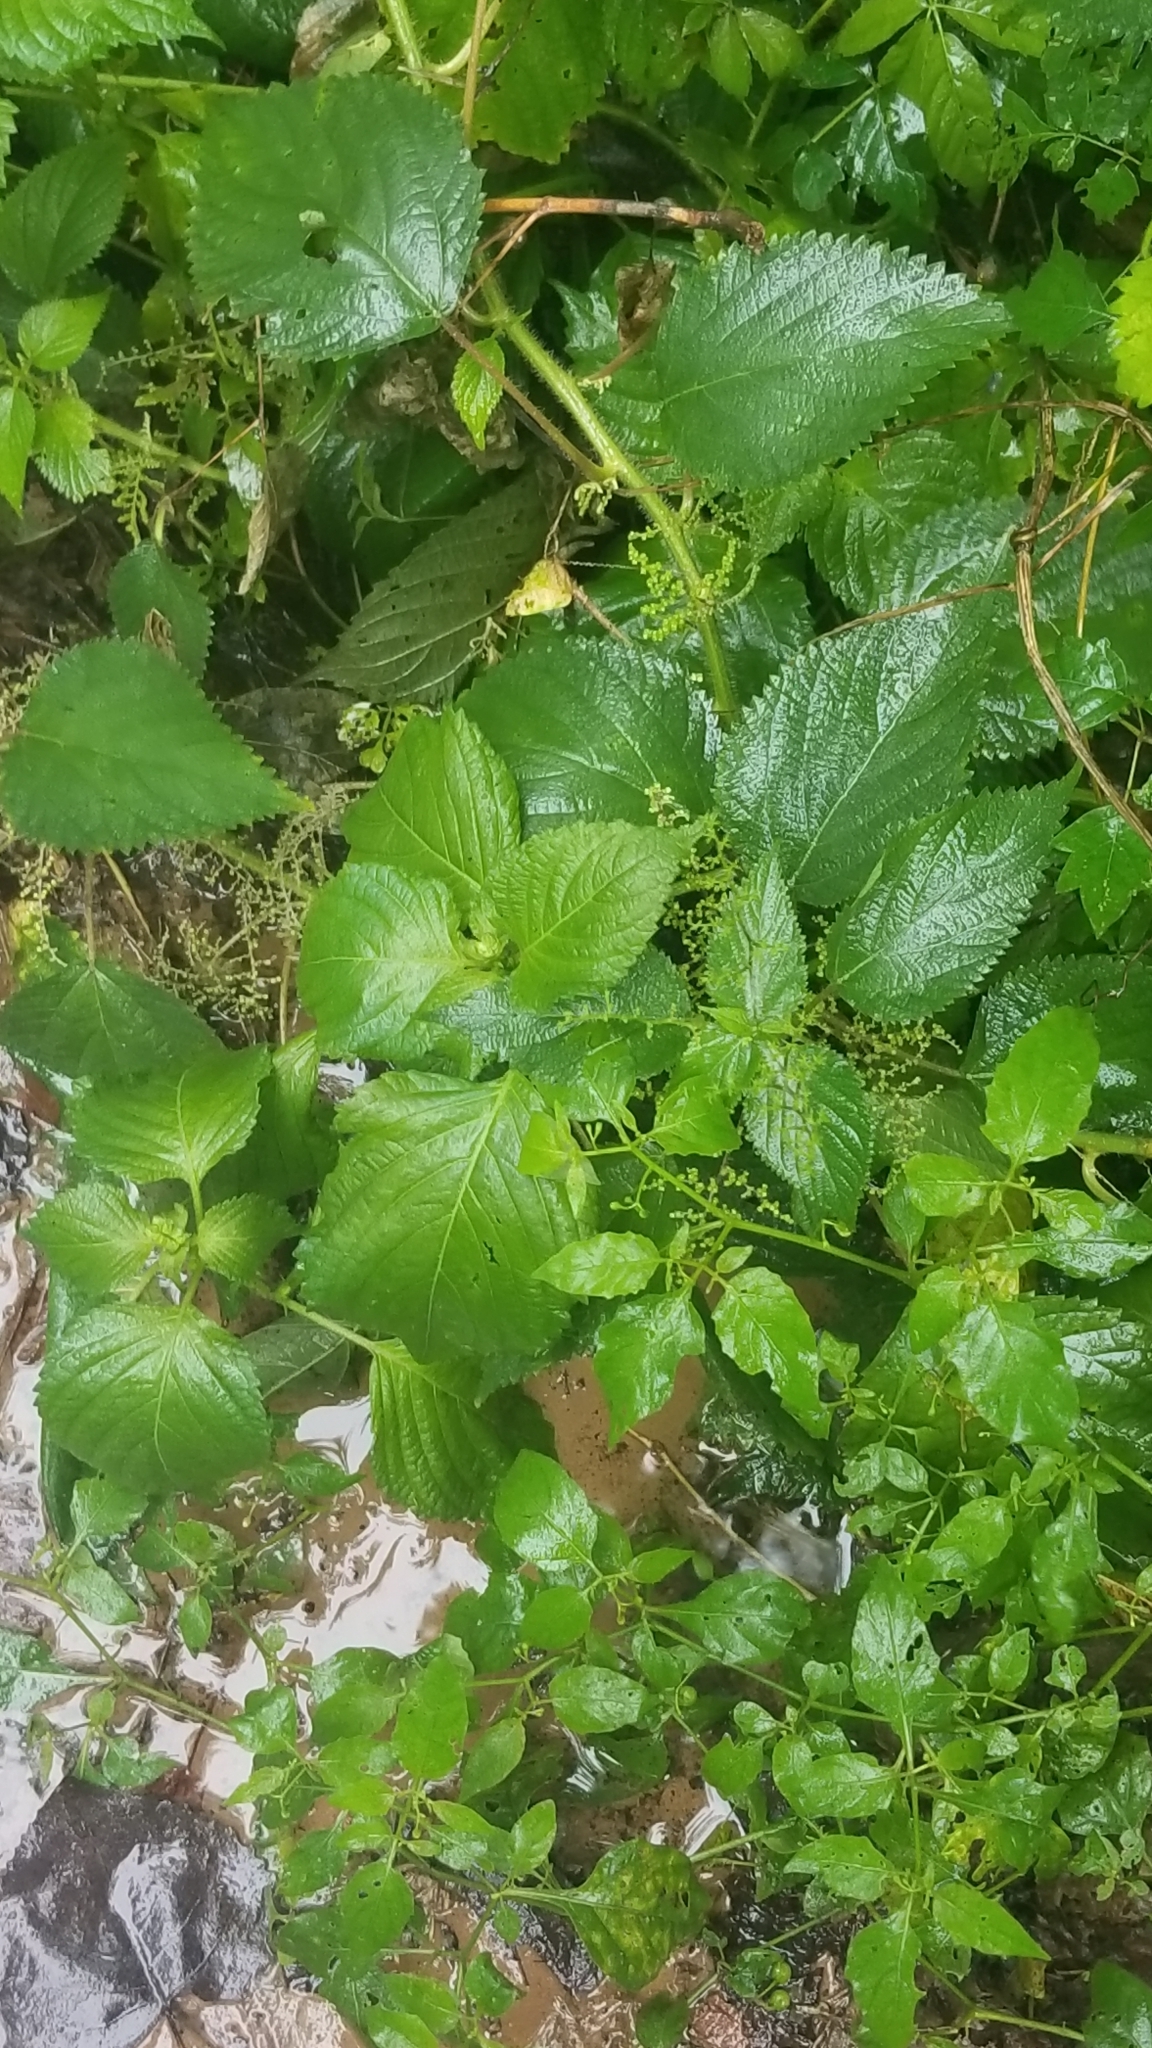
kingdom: Plantae
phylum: Tracheophyta
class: Magnoliopsida
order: Rosales
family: Urticaceae
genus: Laportea
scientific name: Laportea canadensis
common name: Canada nettle
